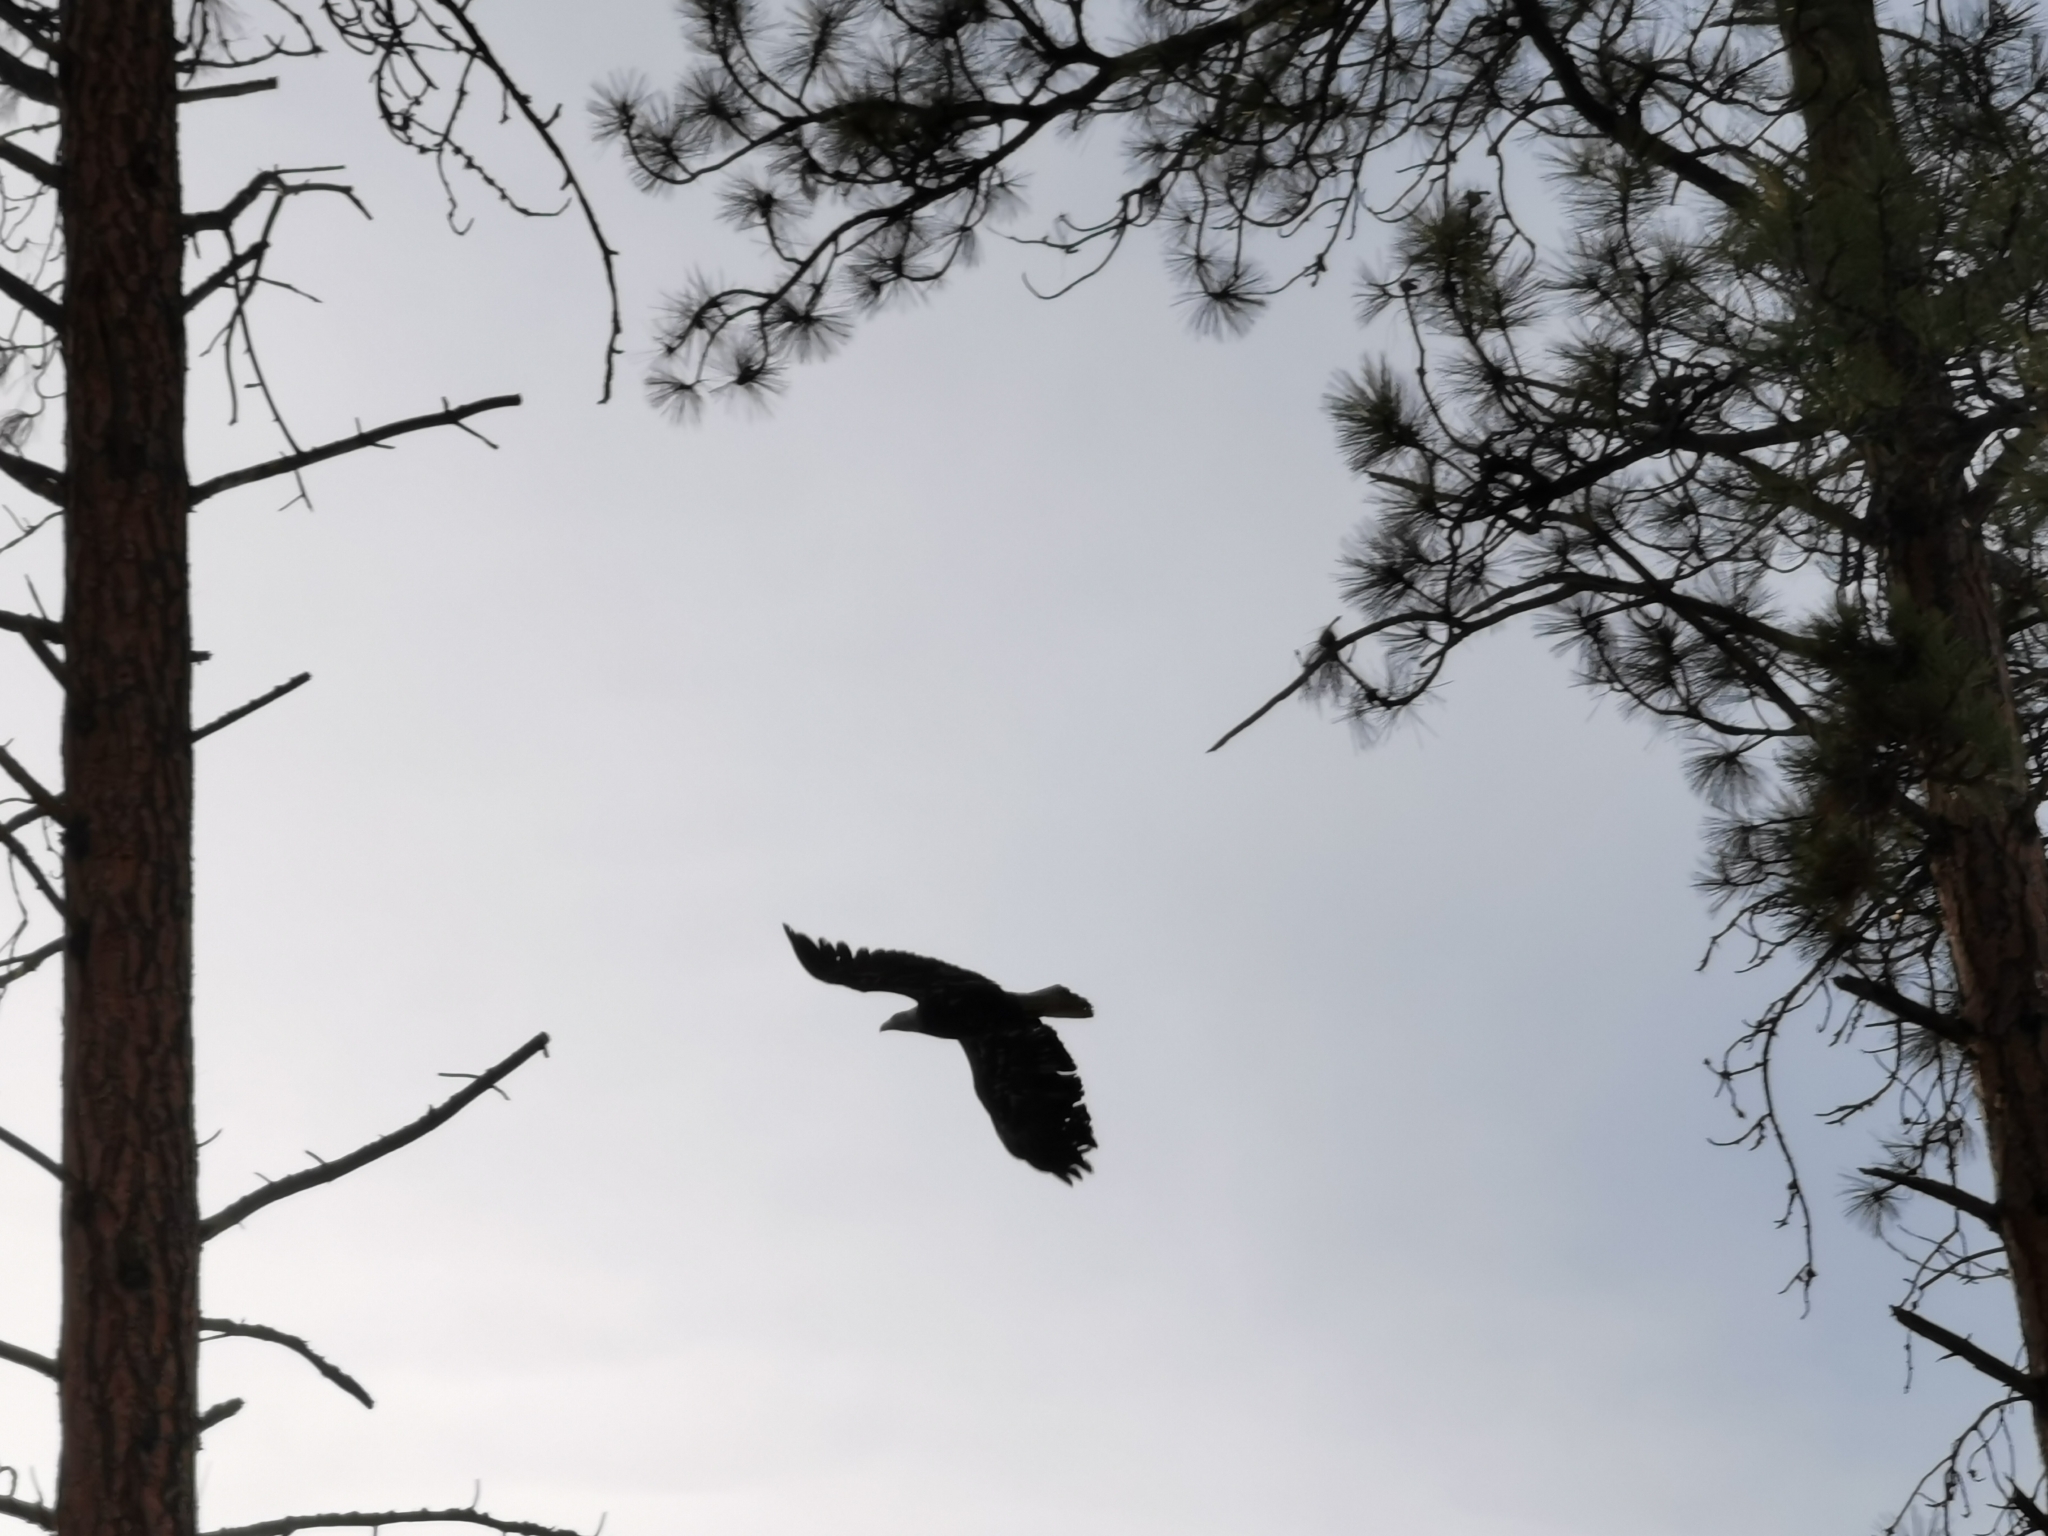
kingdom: Animalia
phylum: Chordata
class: Aves
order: Accipitriformes
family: Accipitridae
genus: Haliaeetus
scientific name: Haliaeetus leucocephalus
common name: Bald eagle
